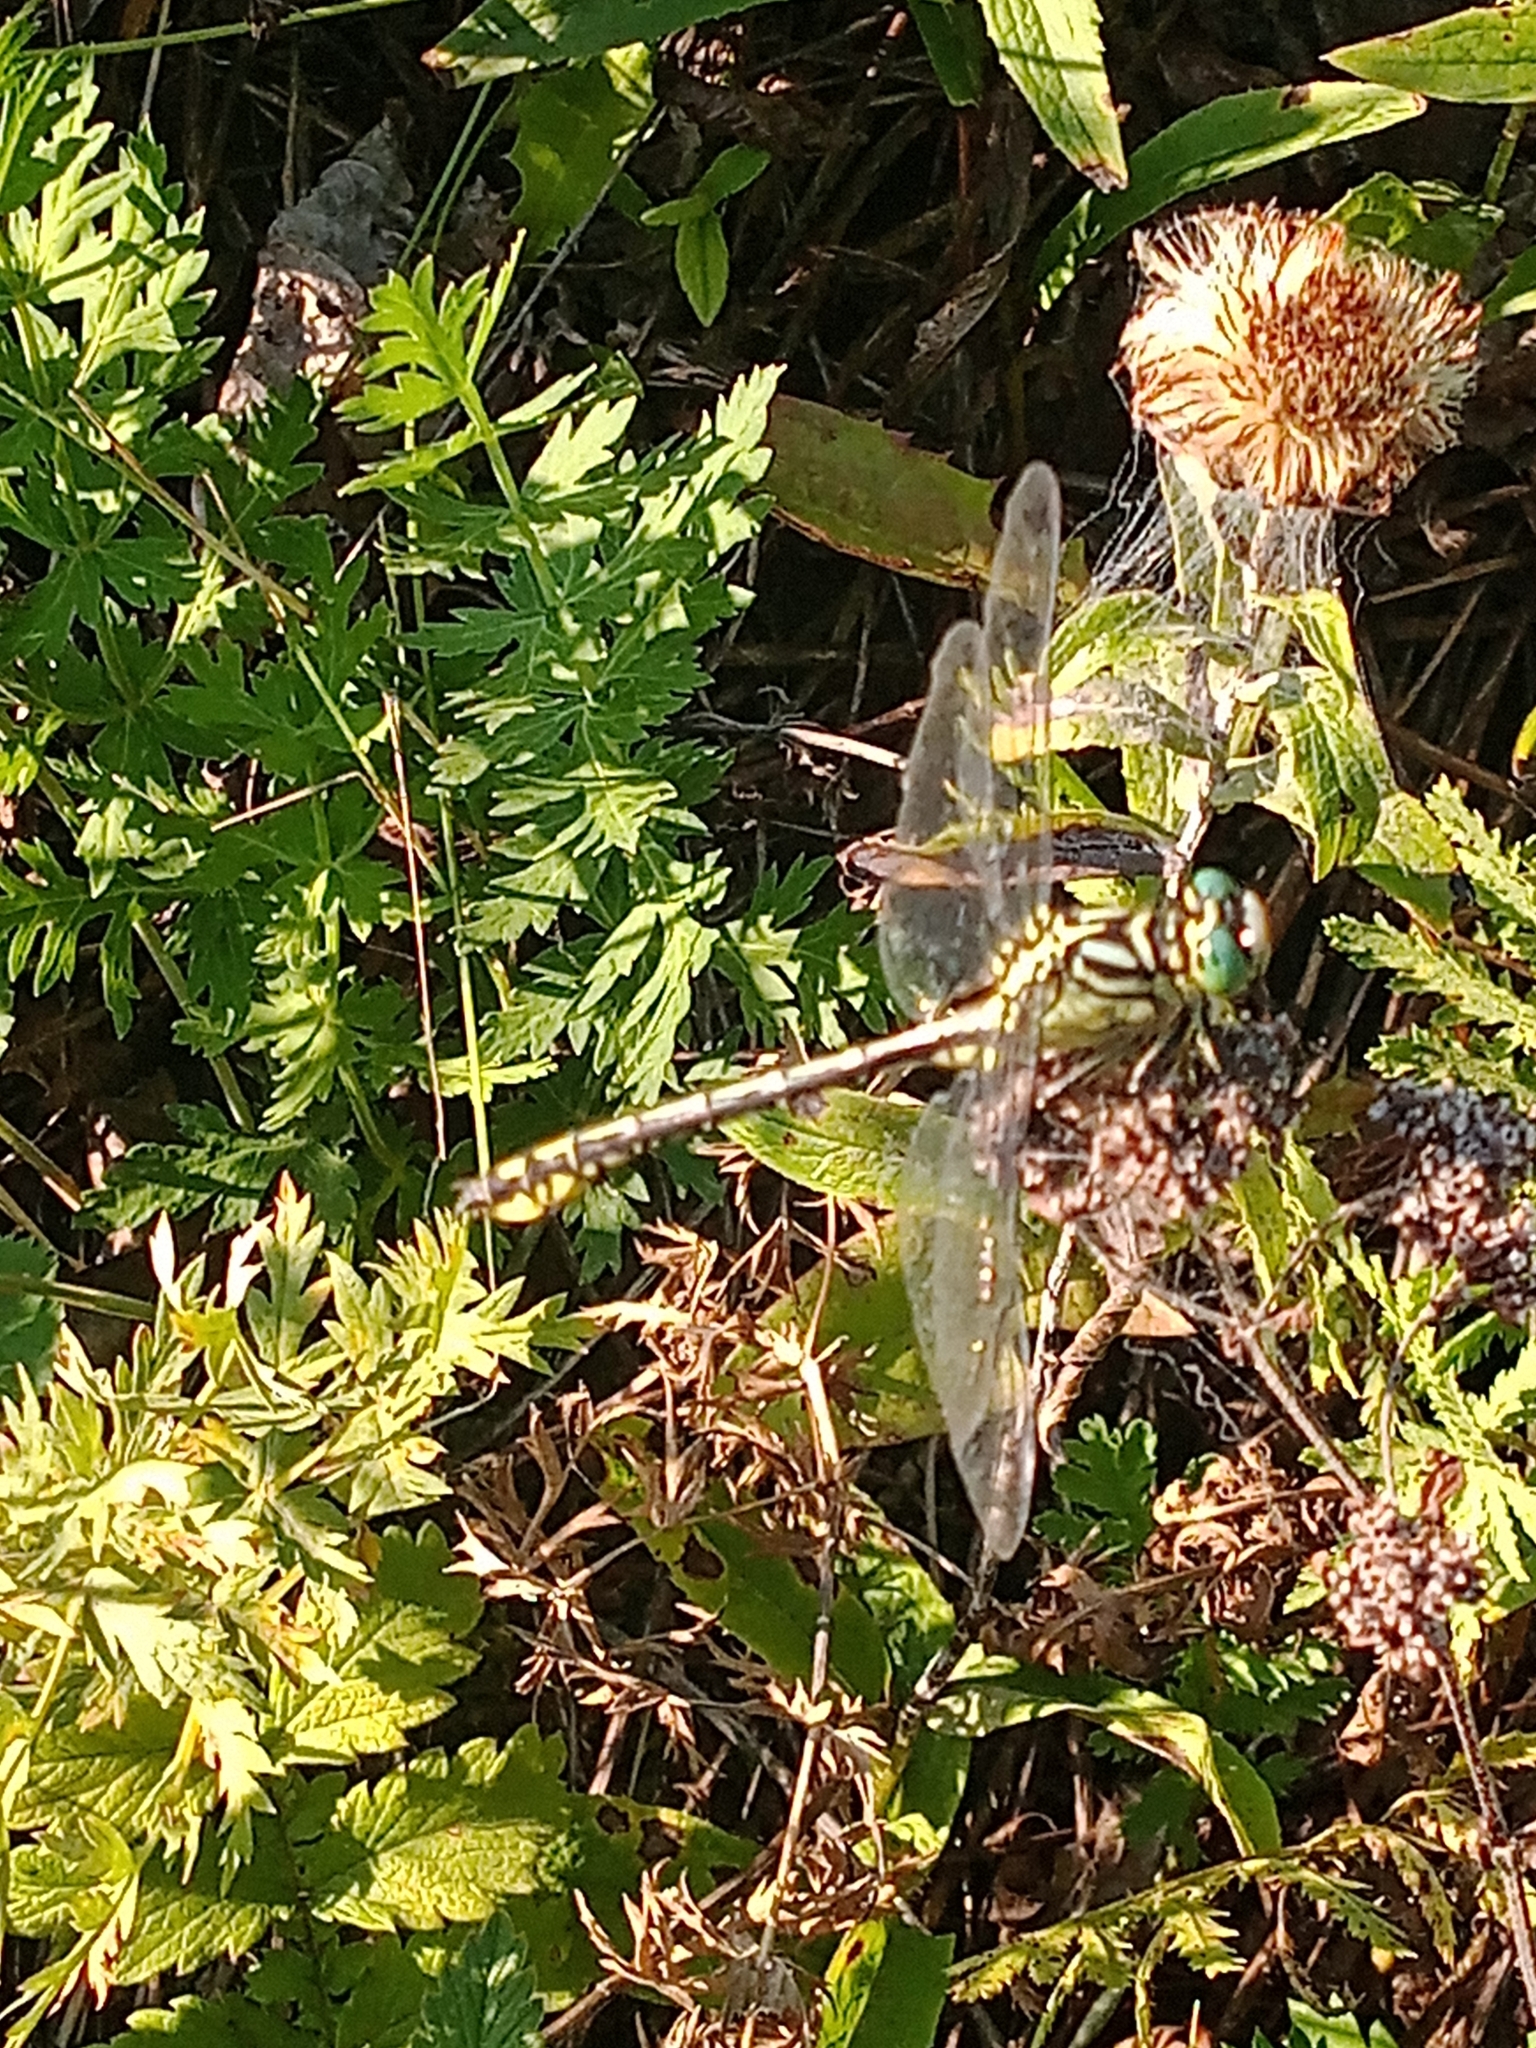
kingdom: Animalia
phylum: Arthropoda
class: Insecta
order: Odonata
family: Gomphidae
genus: Stylurus
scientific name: Stylurus flavipes
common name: River clubtail
